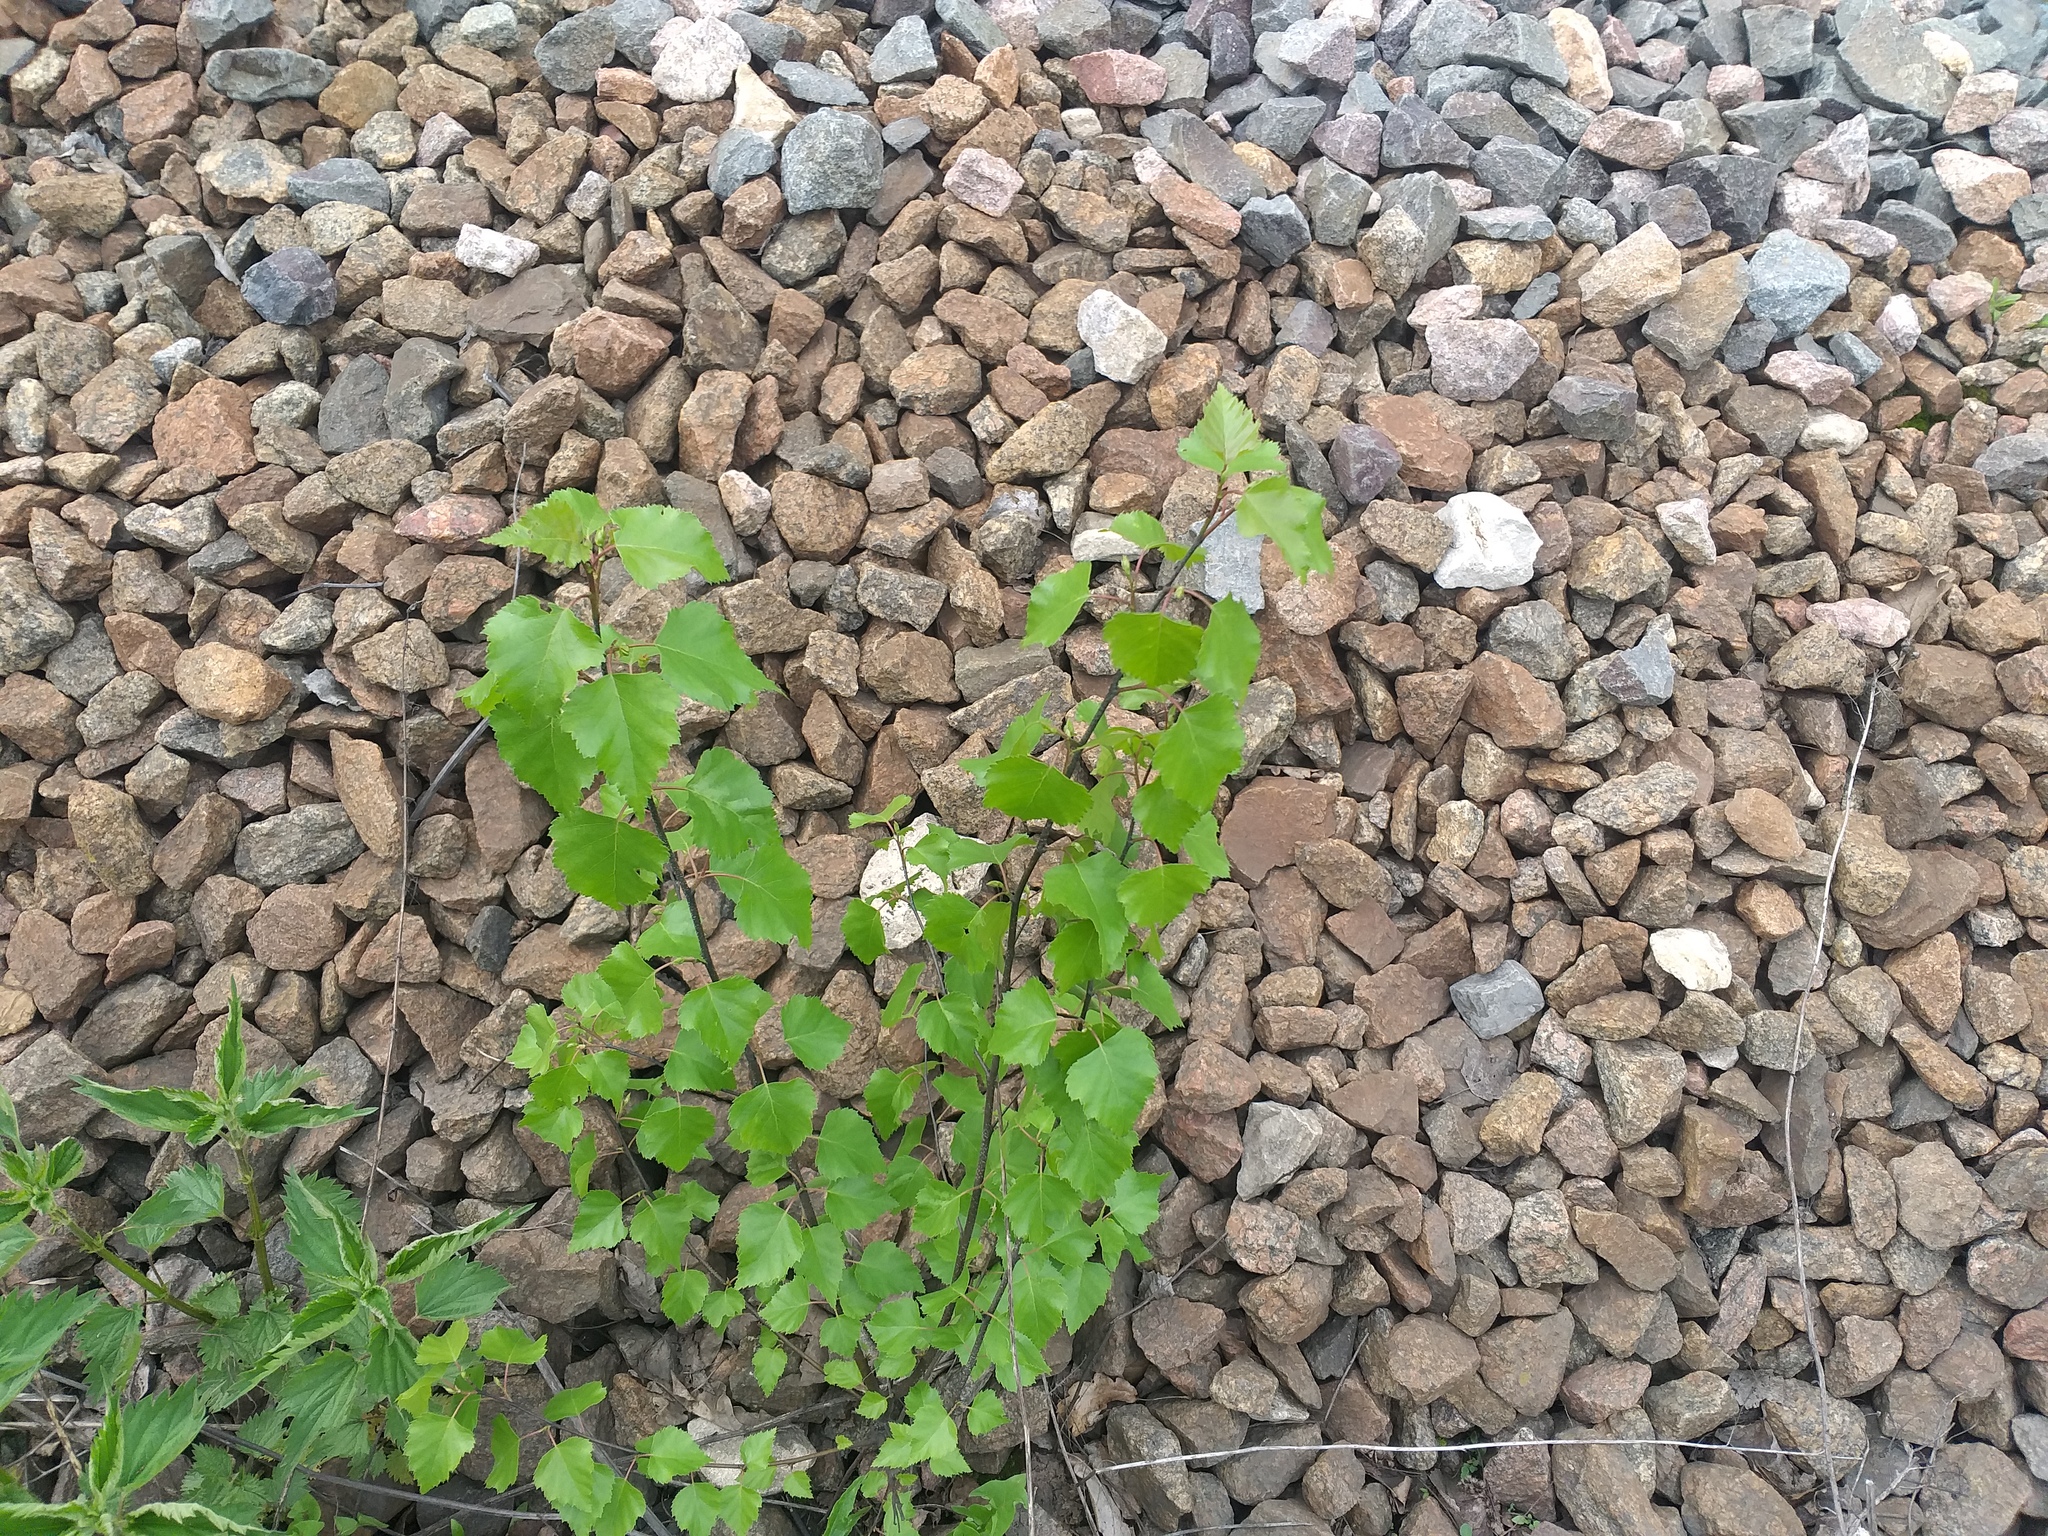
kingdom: Plantae
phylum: Tracheophyta
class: Magnoliopsida
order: Fagales
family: Betulaceae
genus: Betula
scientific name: Betula pendula
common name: Silver birch
